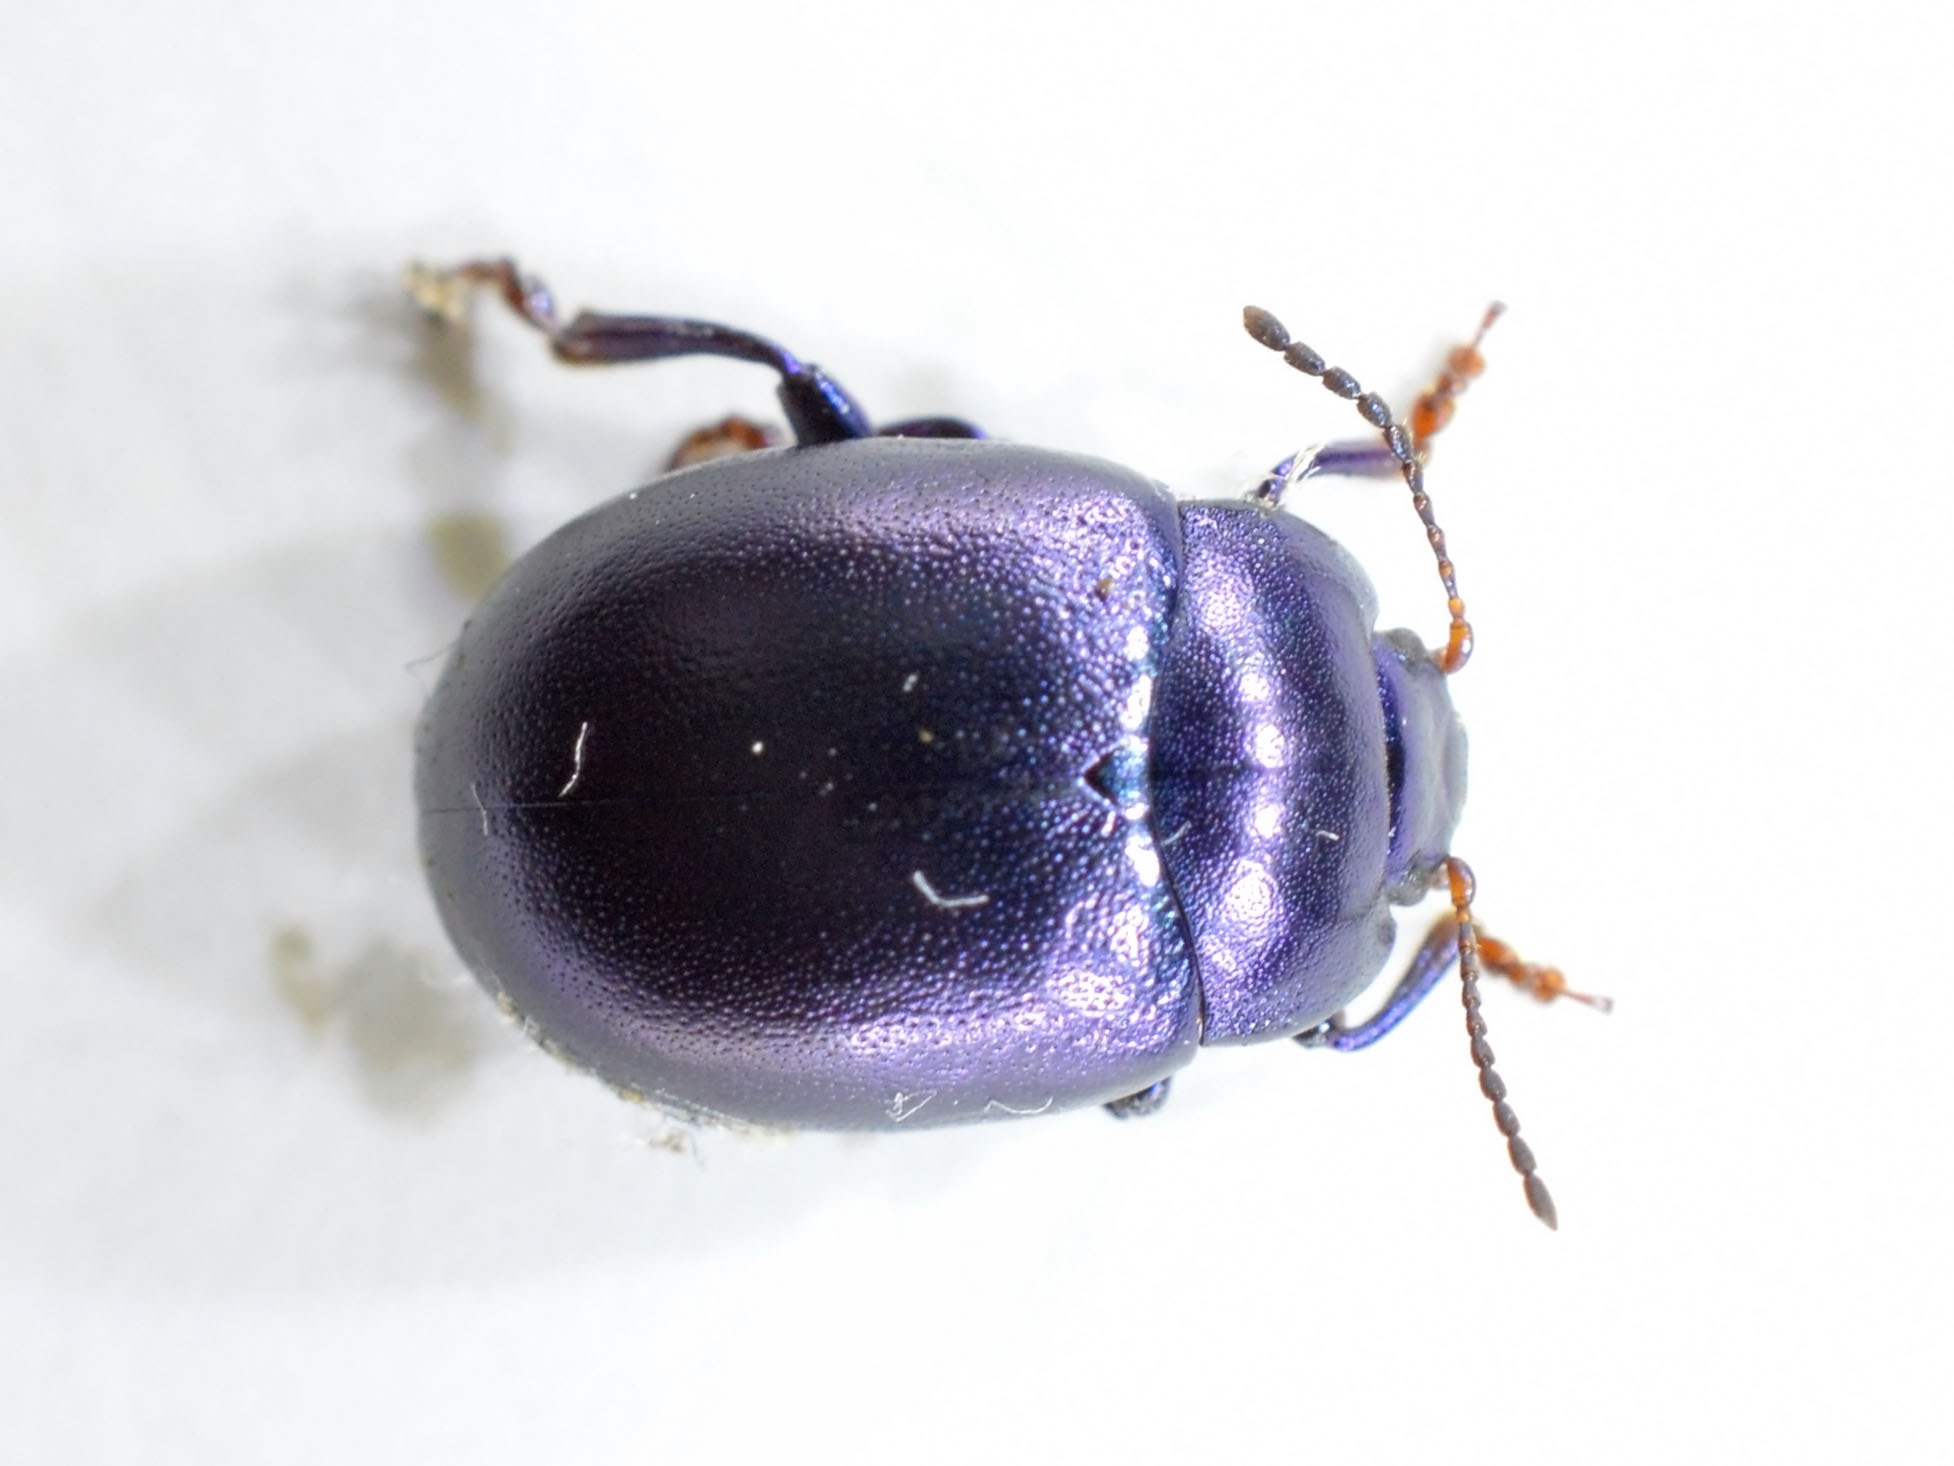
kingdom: Animalia
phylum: Arthropoda
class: Insecta
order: Coleoptera
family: Chrysomelidae
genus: Chrysolina
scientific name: Chrysolina sturmi
